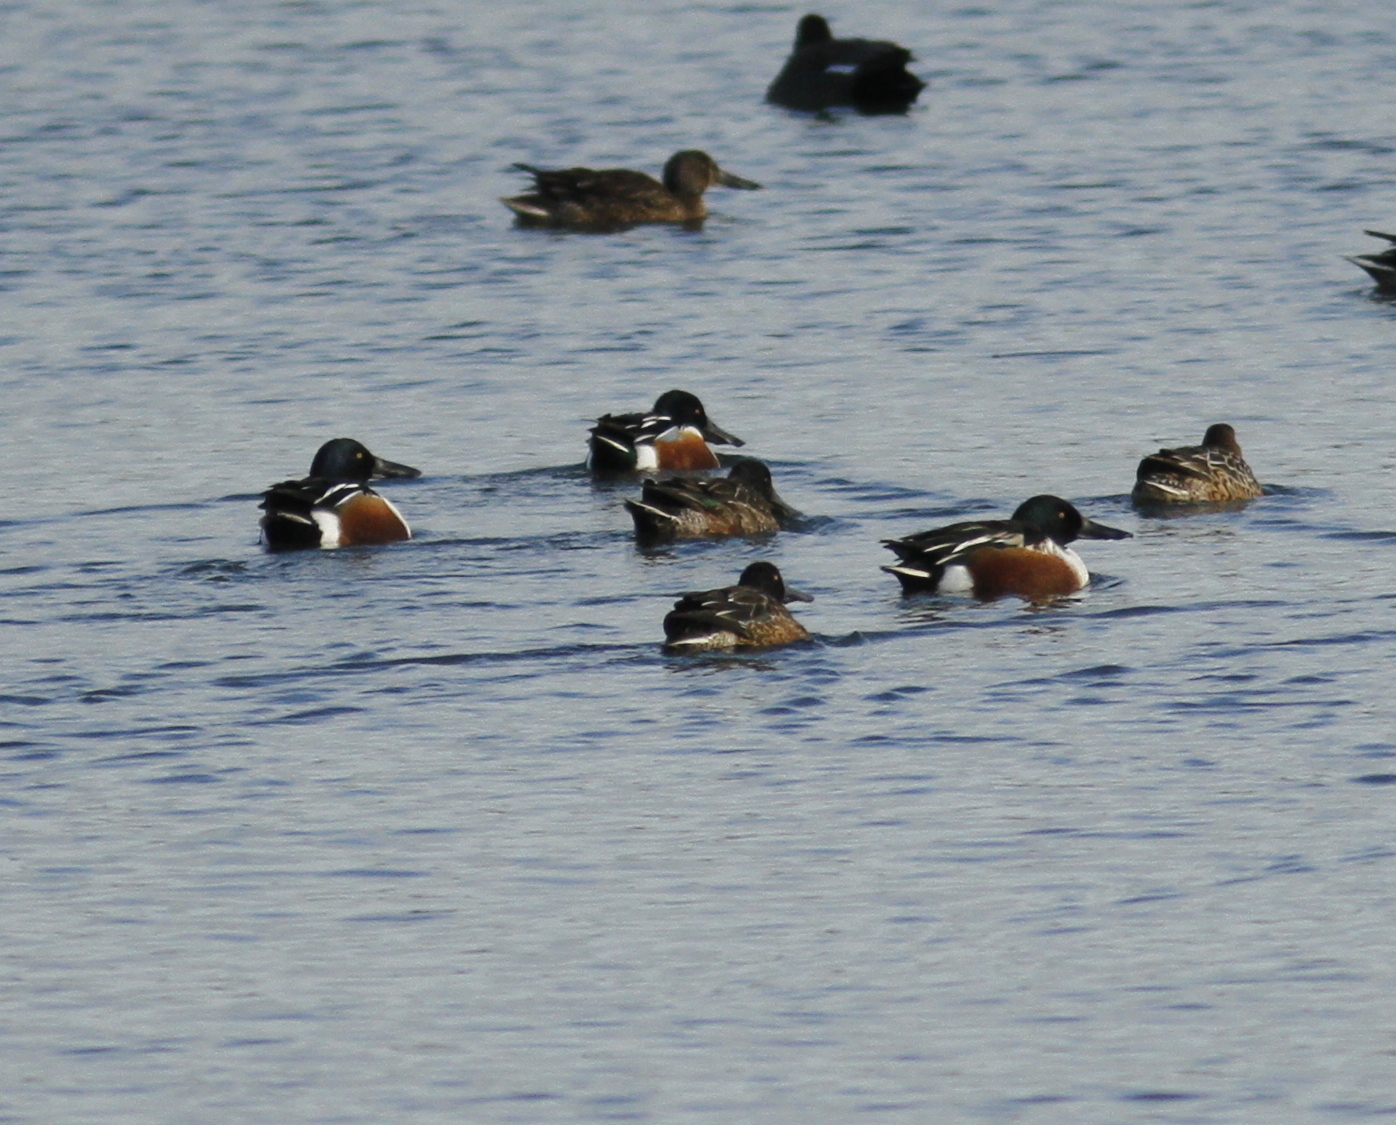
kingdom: Animalia
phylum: Chordata
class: Aves
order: Anseriformes
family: Anatidae
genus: Spatula
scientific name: Spatula clypeata
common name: Northern shoveler
